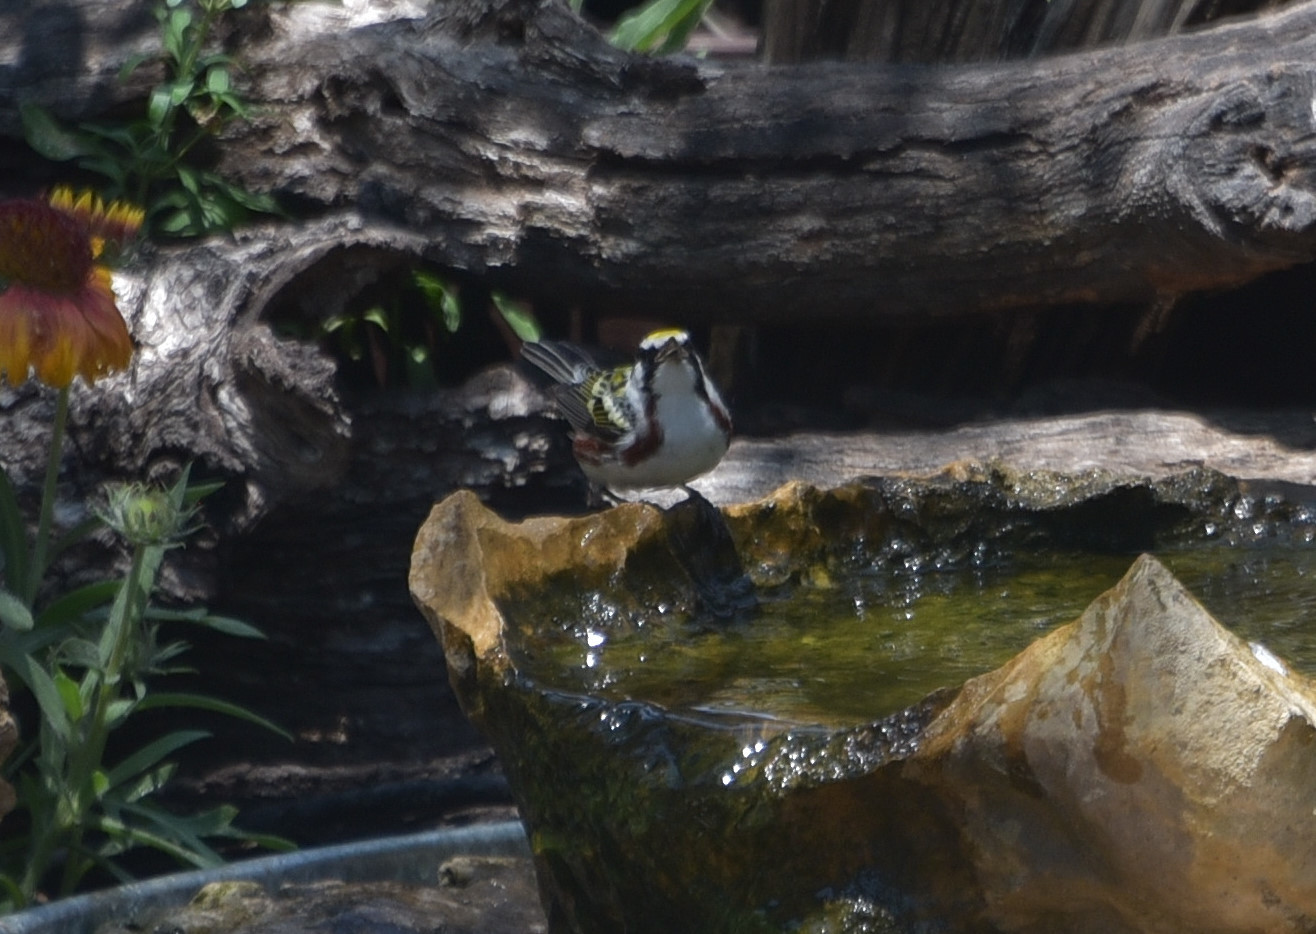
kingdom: Animalia
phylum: Chordata
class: Aves
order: Passeriformes
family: Parulidae
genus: Setophaga
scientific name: Setophaga pensylvanica
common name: Chestnut-sided warbler
